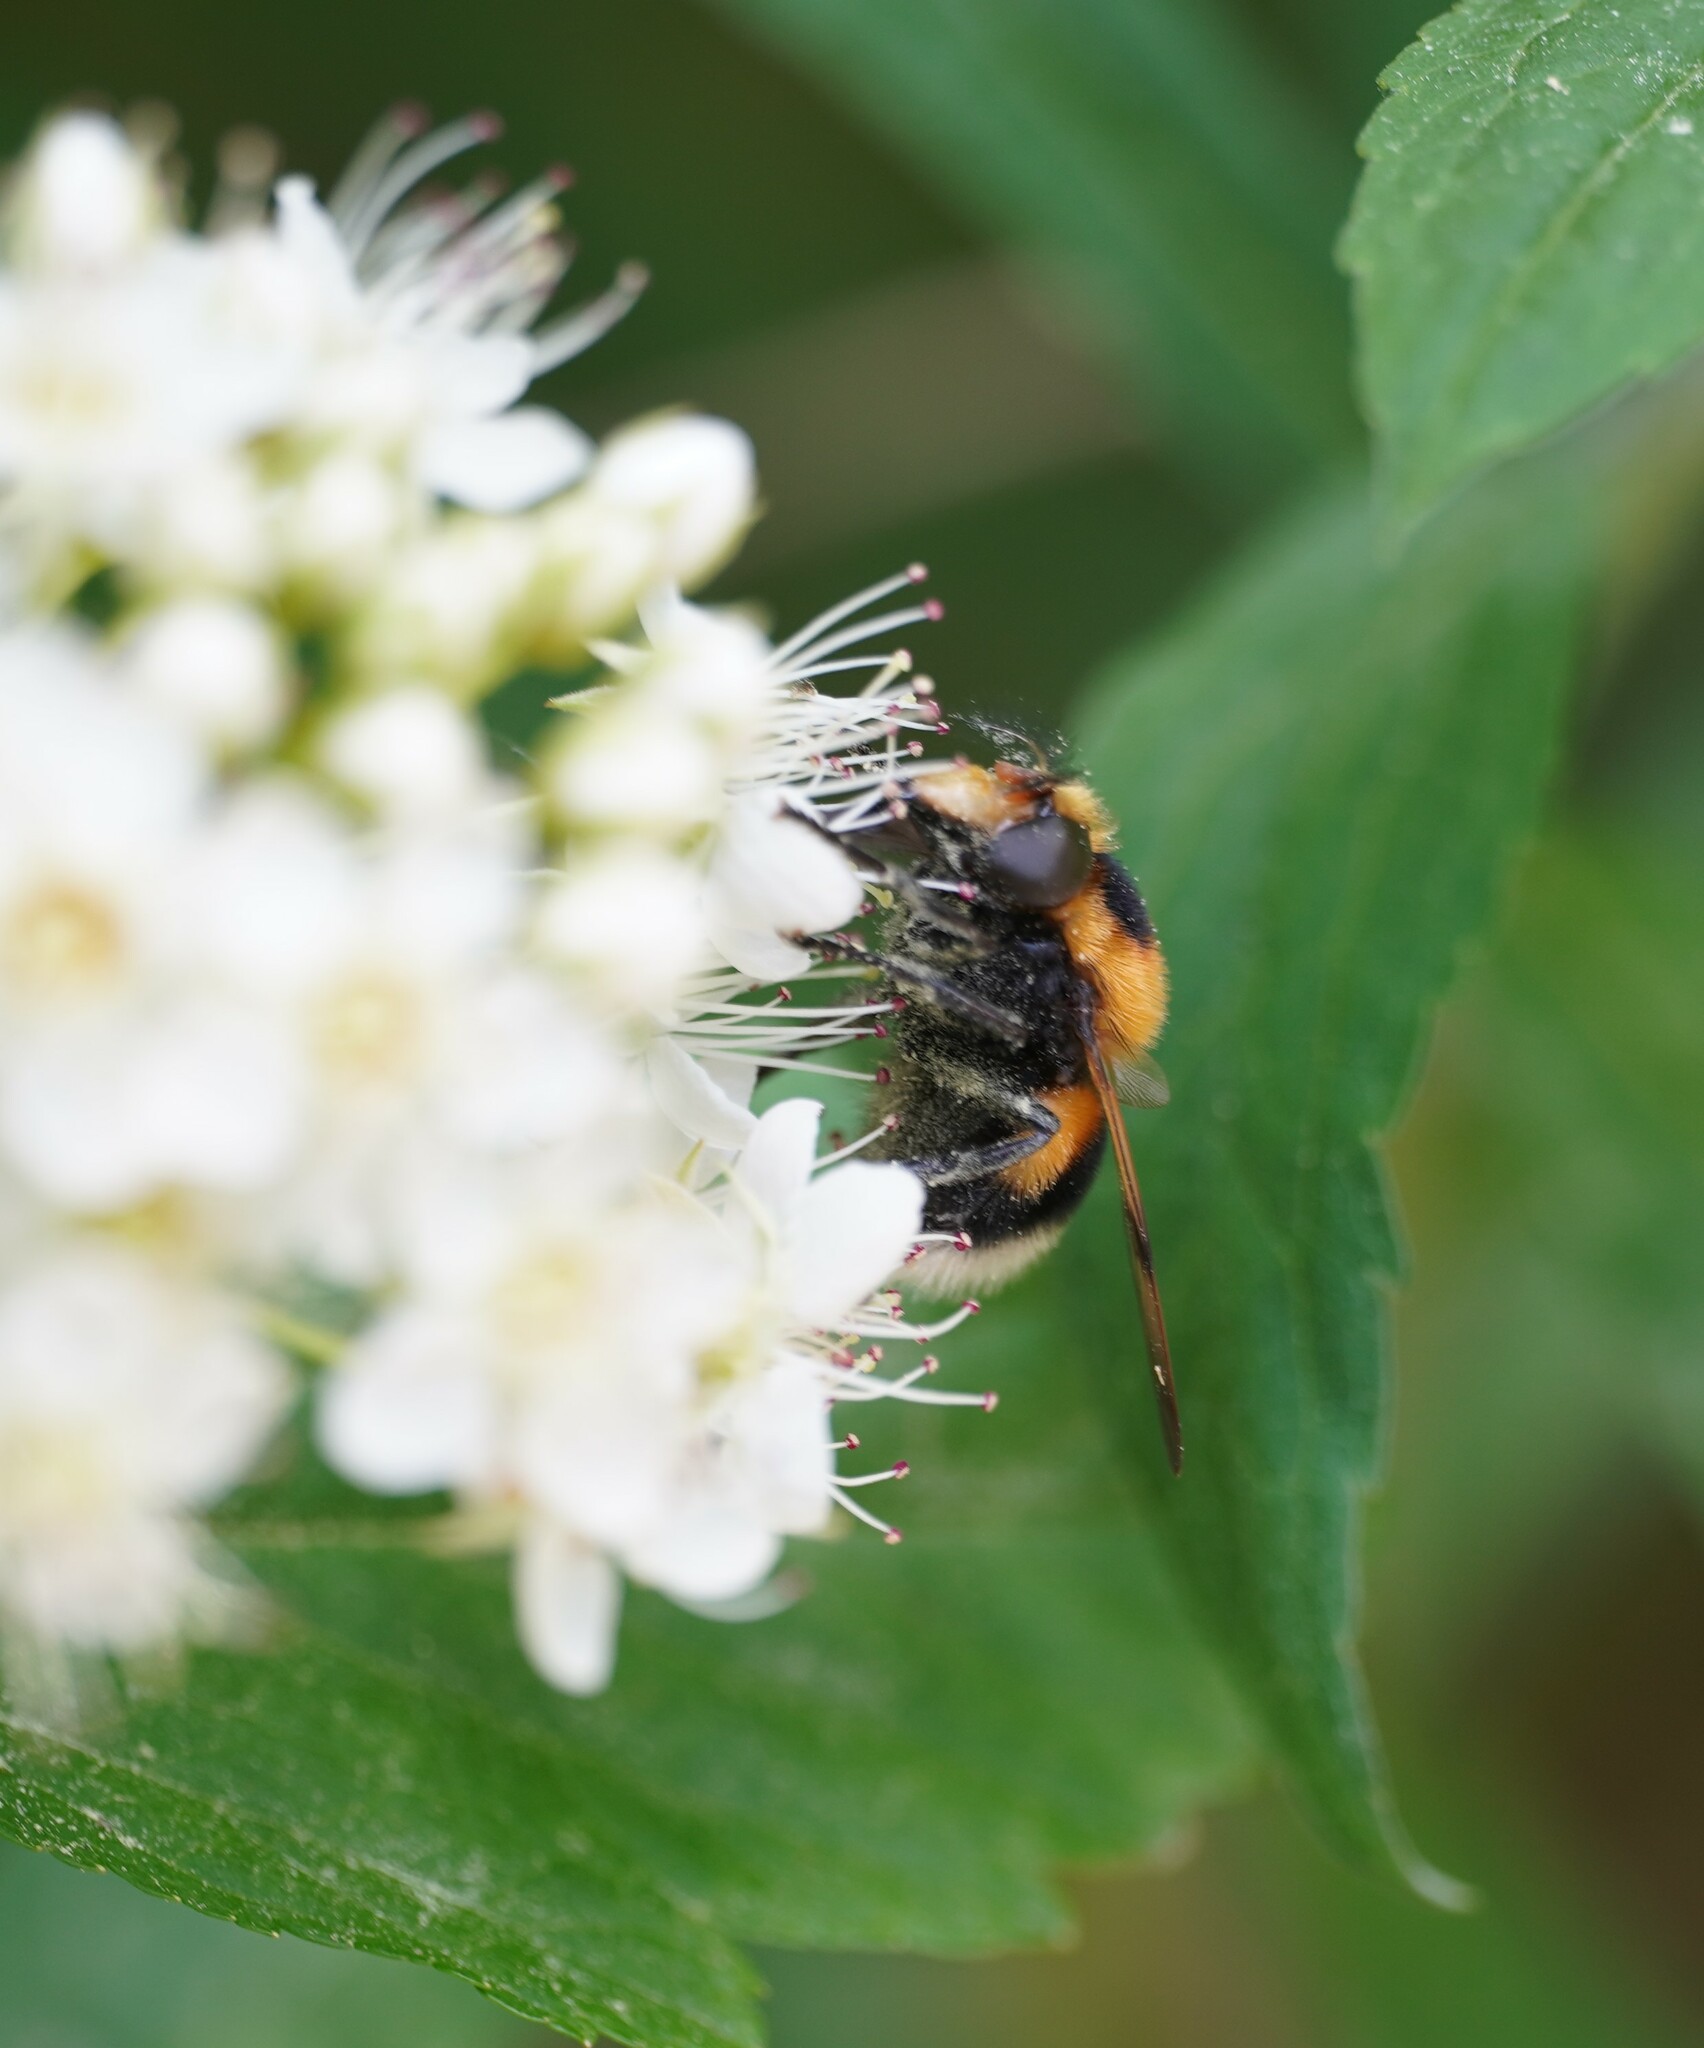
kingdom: Animalia
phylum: Arthropoda
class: Insecta
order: Diptera
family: Syrphidae
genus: Volucella
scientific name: Volucella bombylans
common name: Bumble bee hover fly
